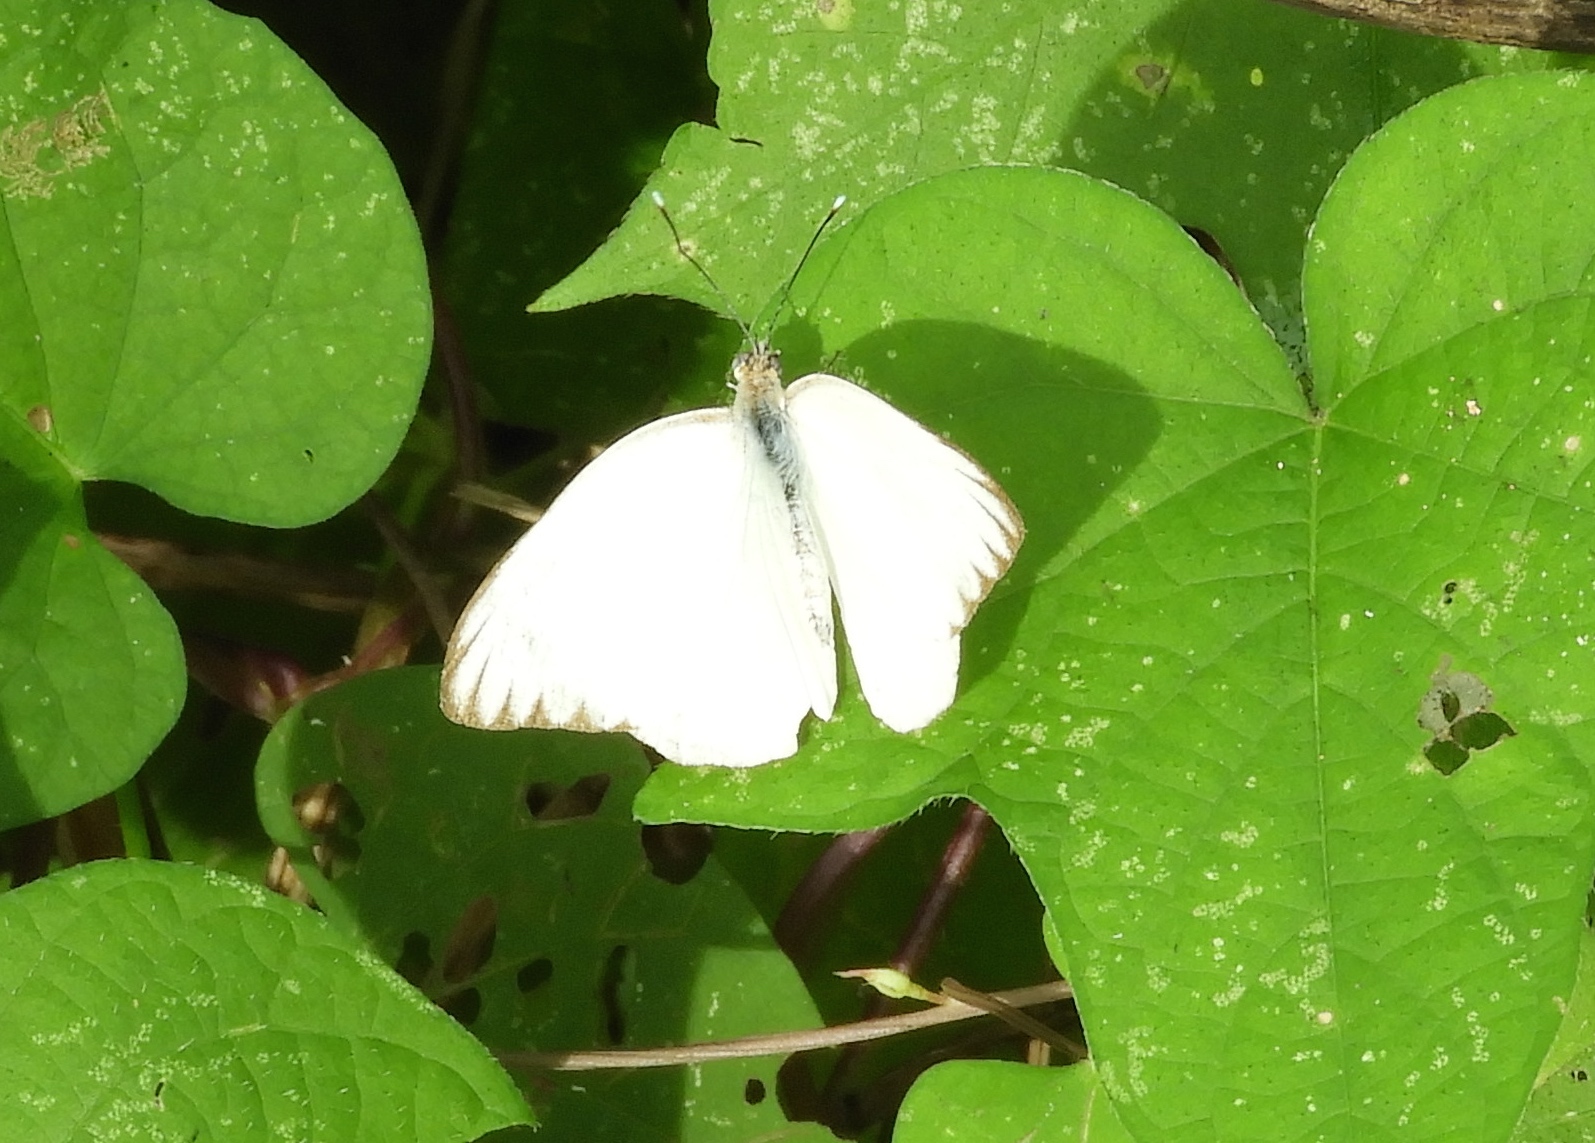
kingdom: Animalia
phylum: Arthropoda
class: Insecta
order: Lepidoptera
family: Pieridae
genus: Ascia
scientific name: Ascia monuste
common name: Great southern white
